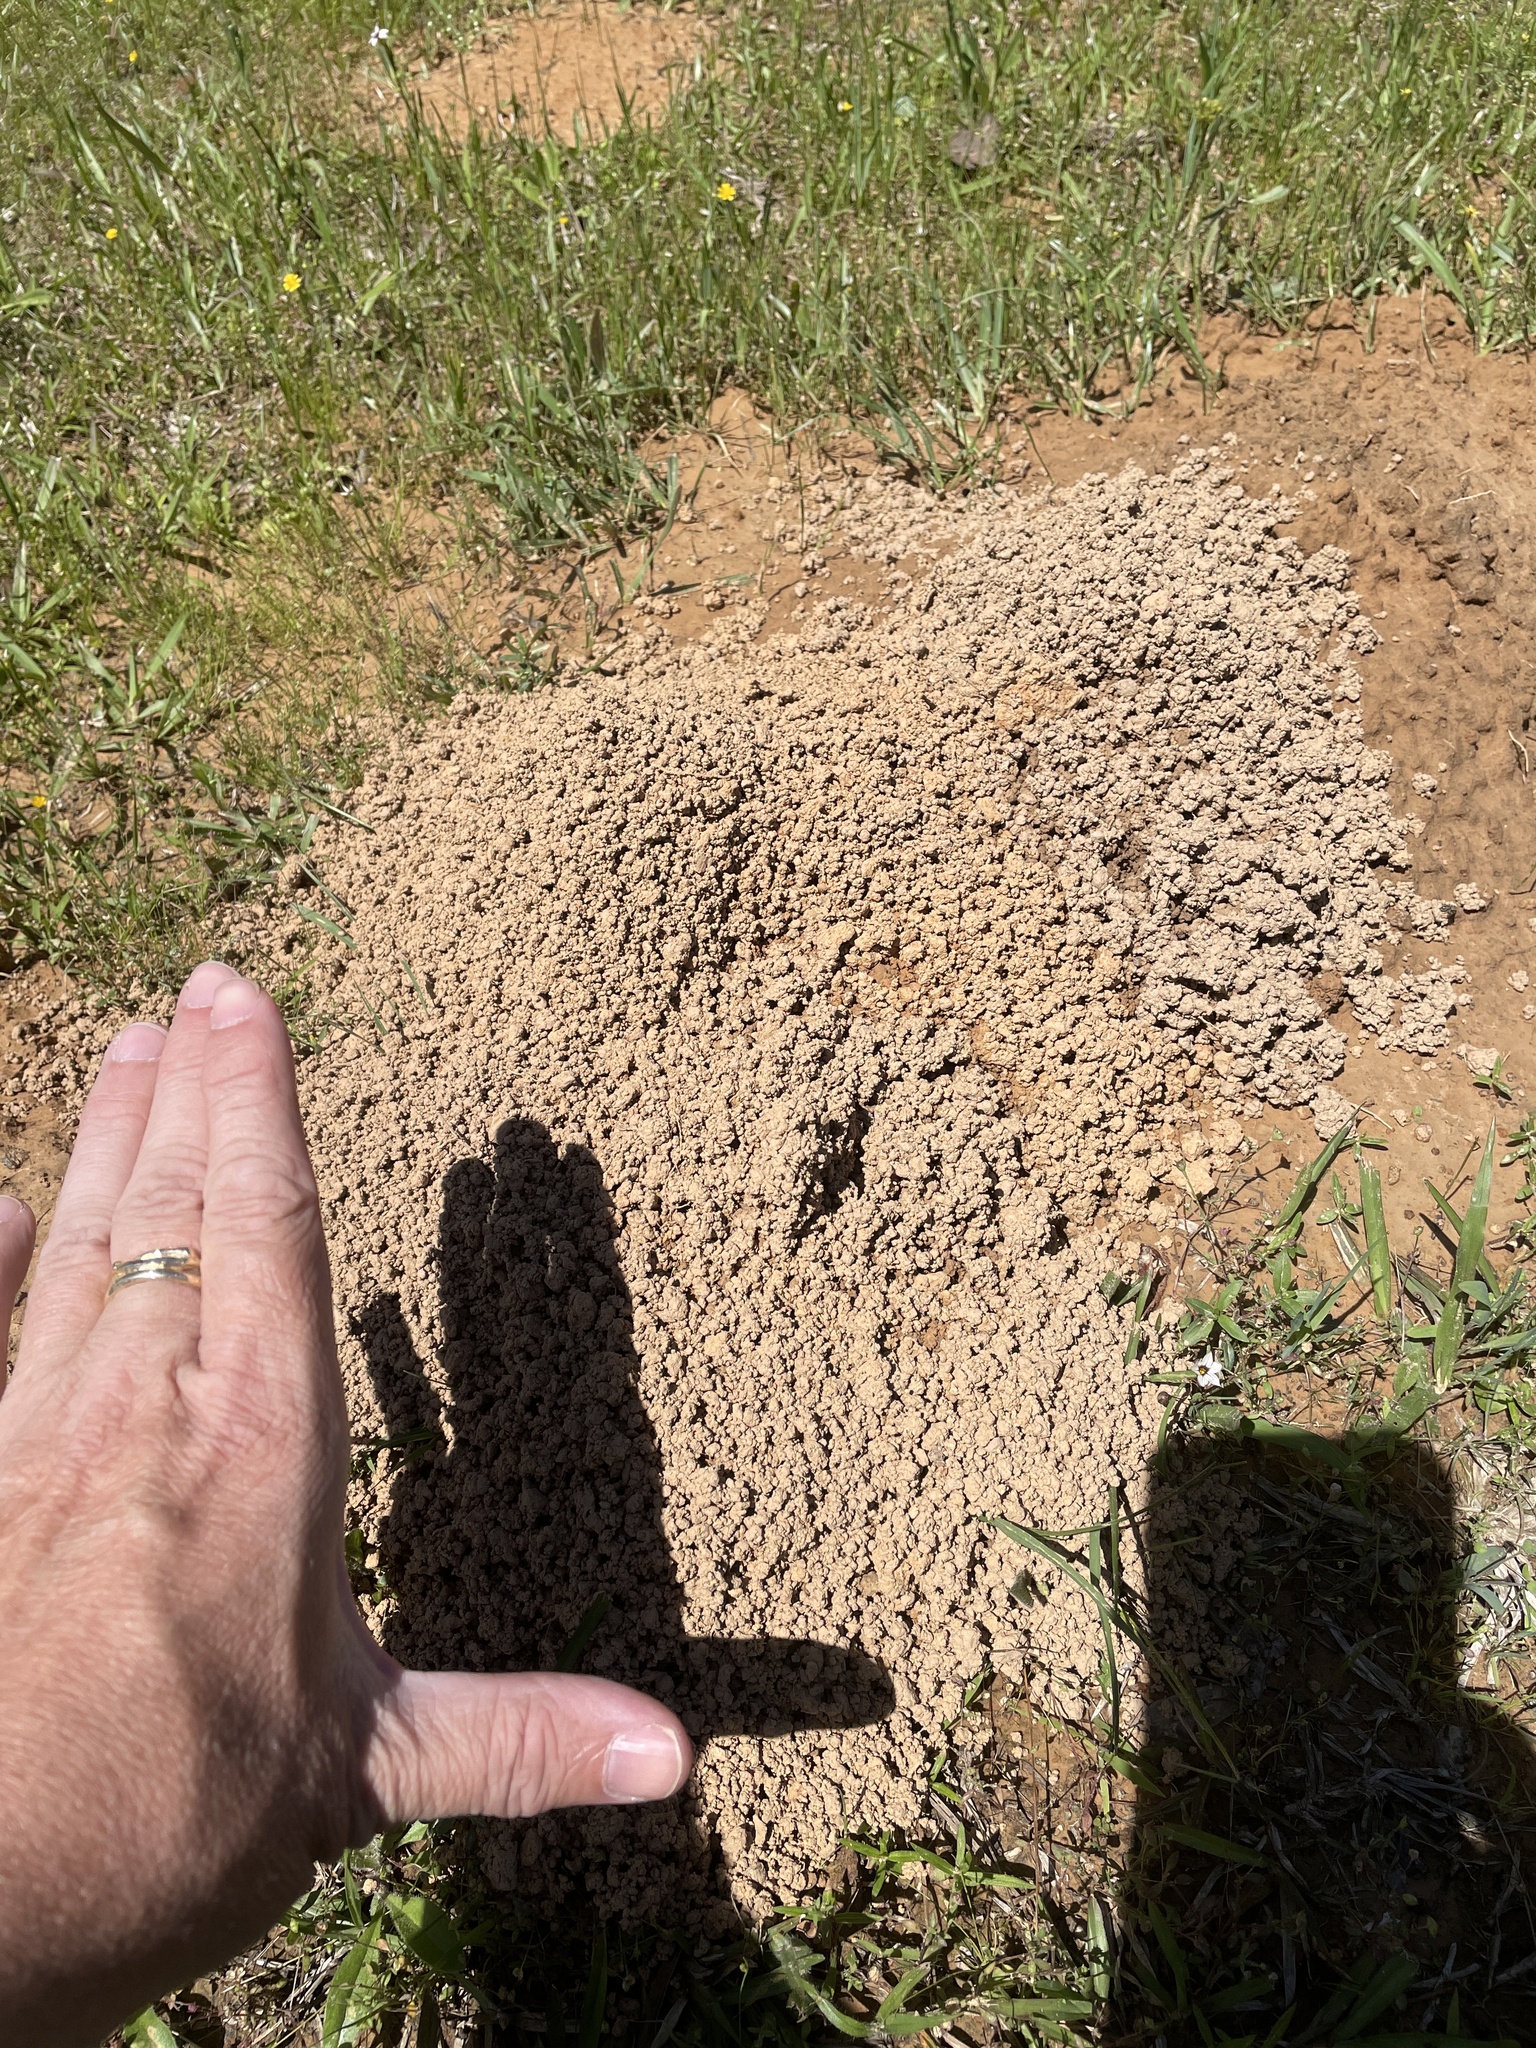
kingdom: Animalia
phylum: Chordata
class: Mammalia
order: Rodentia
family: Geomyidae
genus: Geomys
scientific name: Geomys breviceps
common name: Baird's pocket gopher
